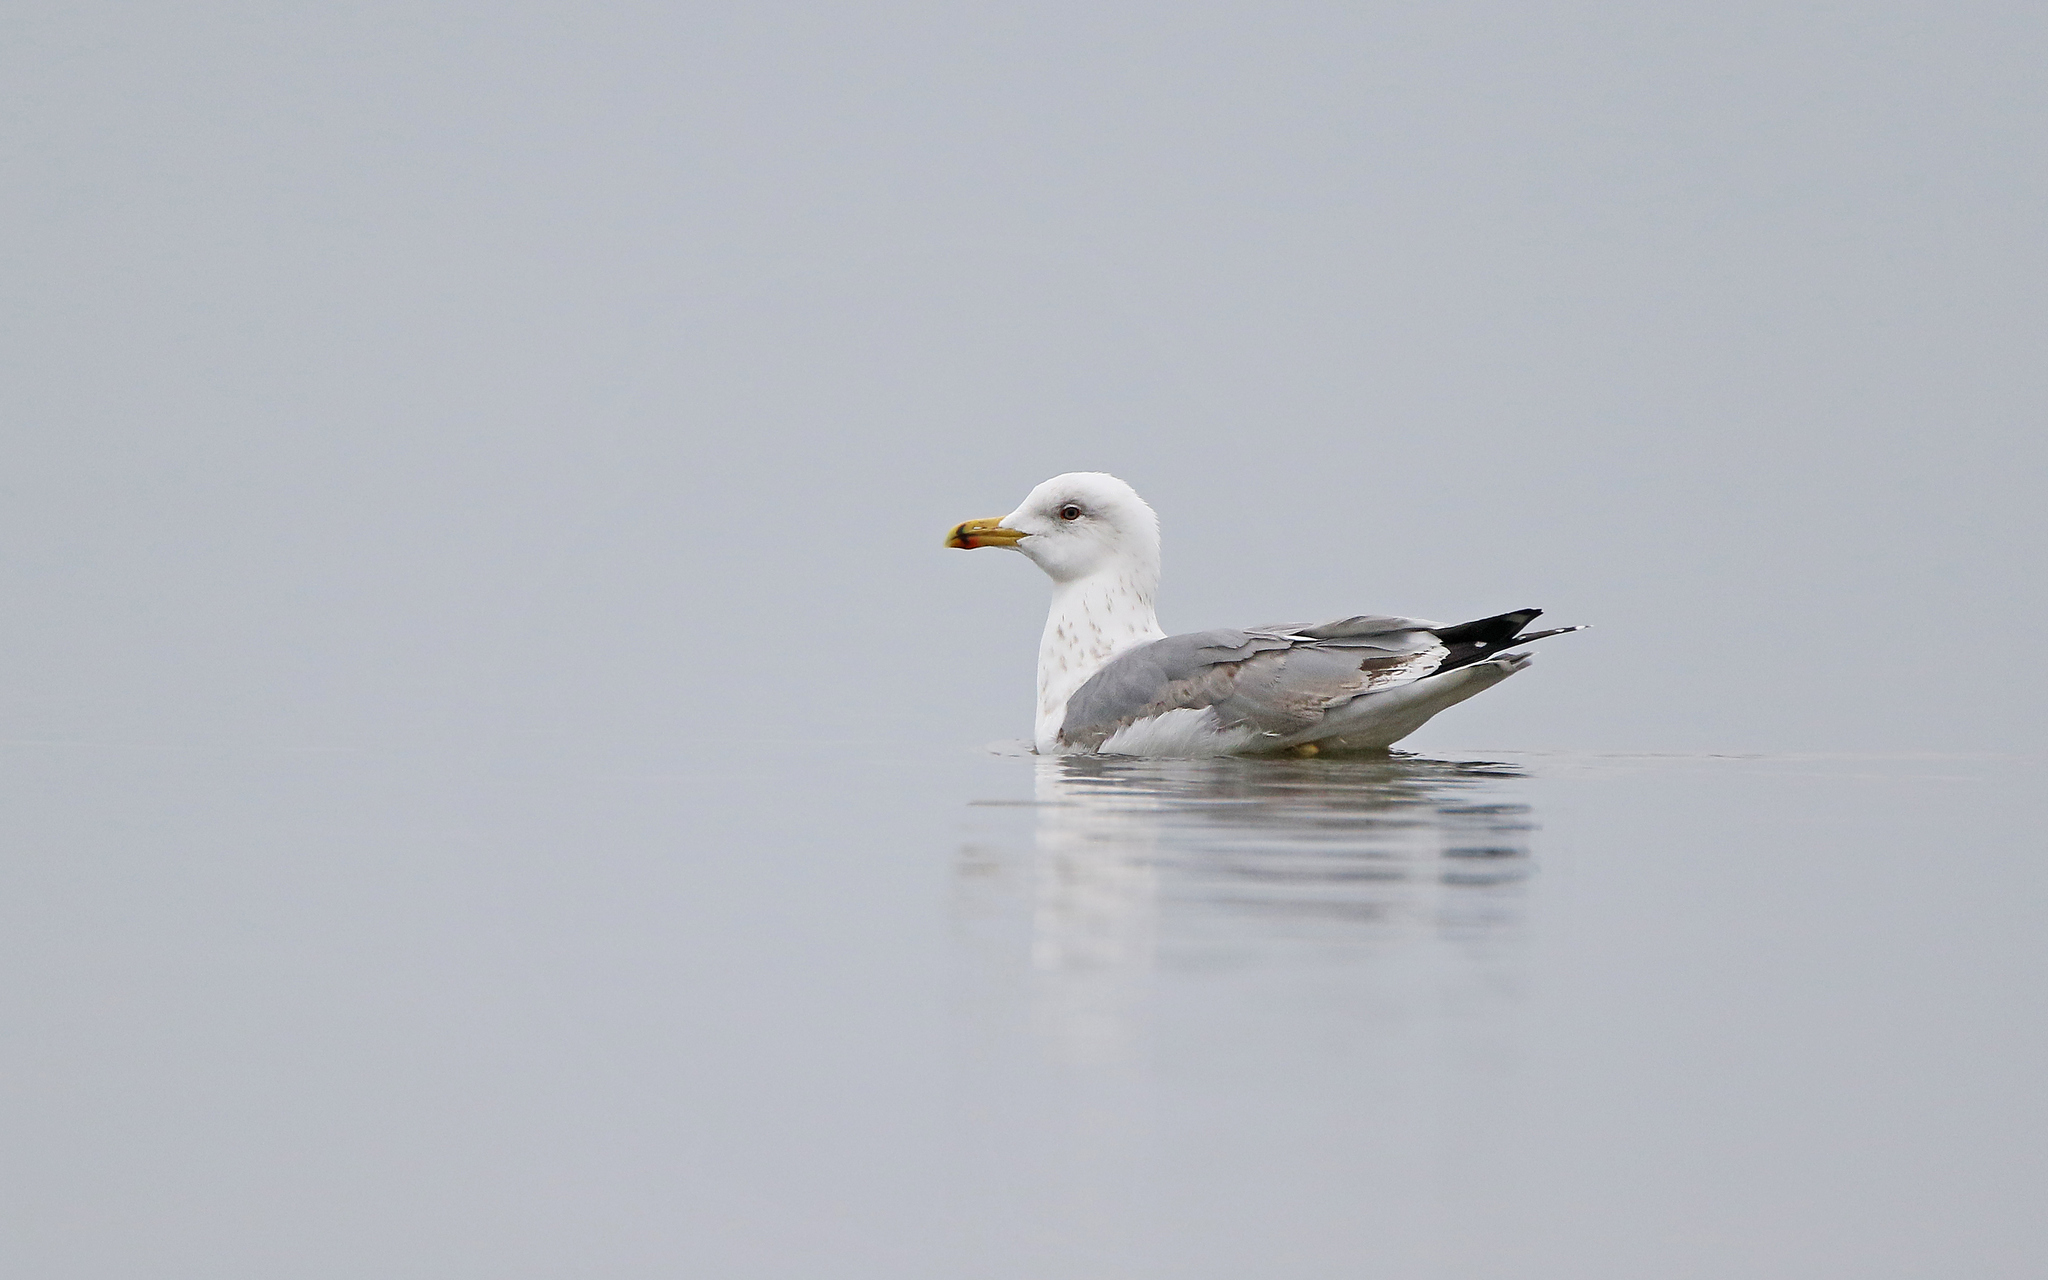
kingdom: Animalia
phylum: Chordata
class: Aves
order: Charadriiformes
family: Laridae
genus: Larus
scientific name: Larus michahellis
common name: Yellow-legged gull
